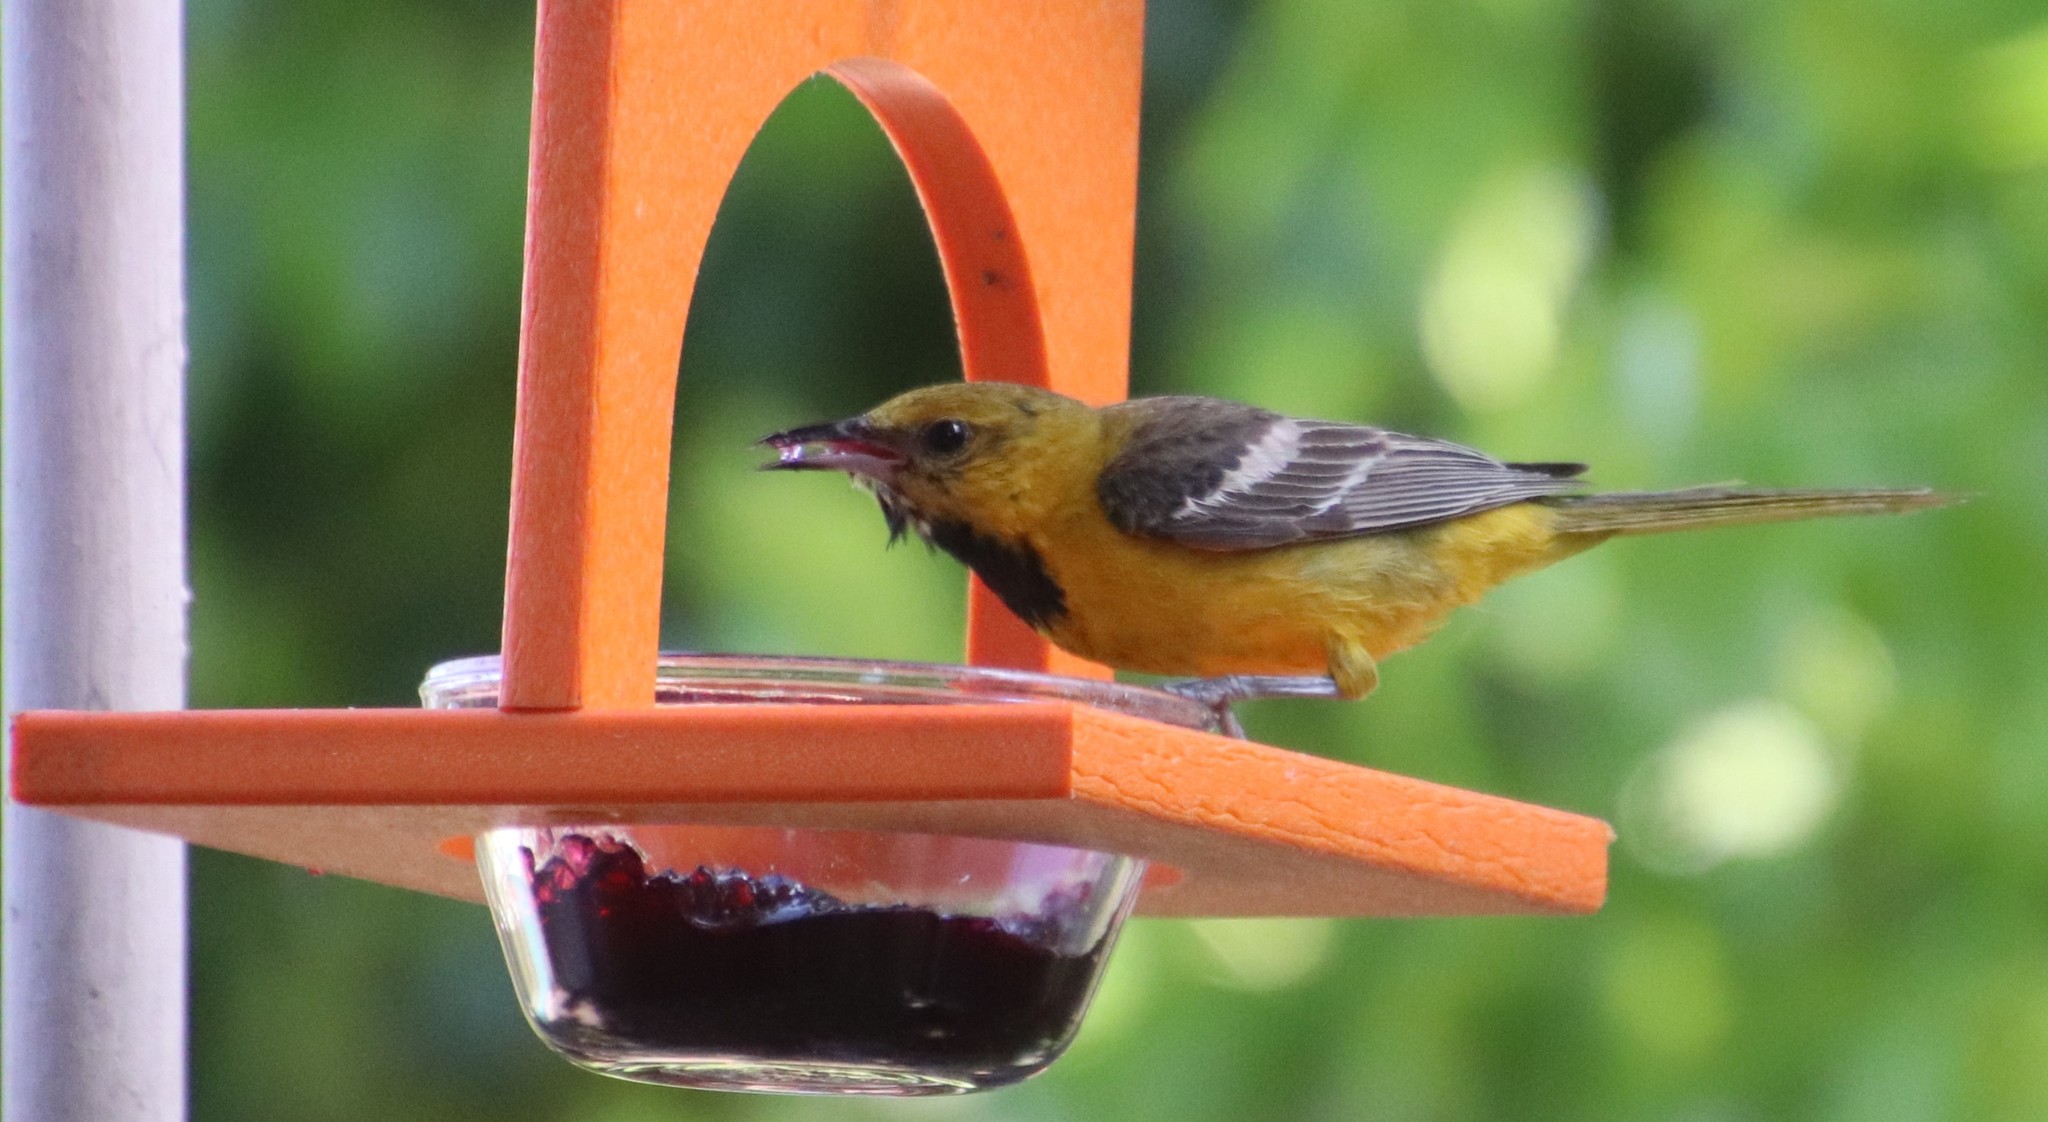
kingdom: Animalia
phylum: Chordata
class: Aves
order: Passeriformes
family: Icteridae
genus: Icterus
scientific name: Icterus cucullatus
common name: Hooded oriole
